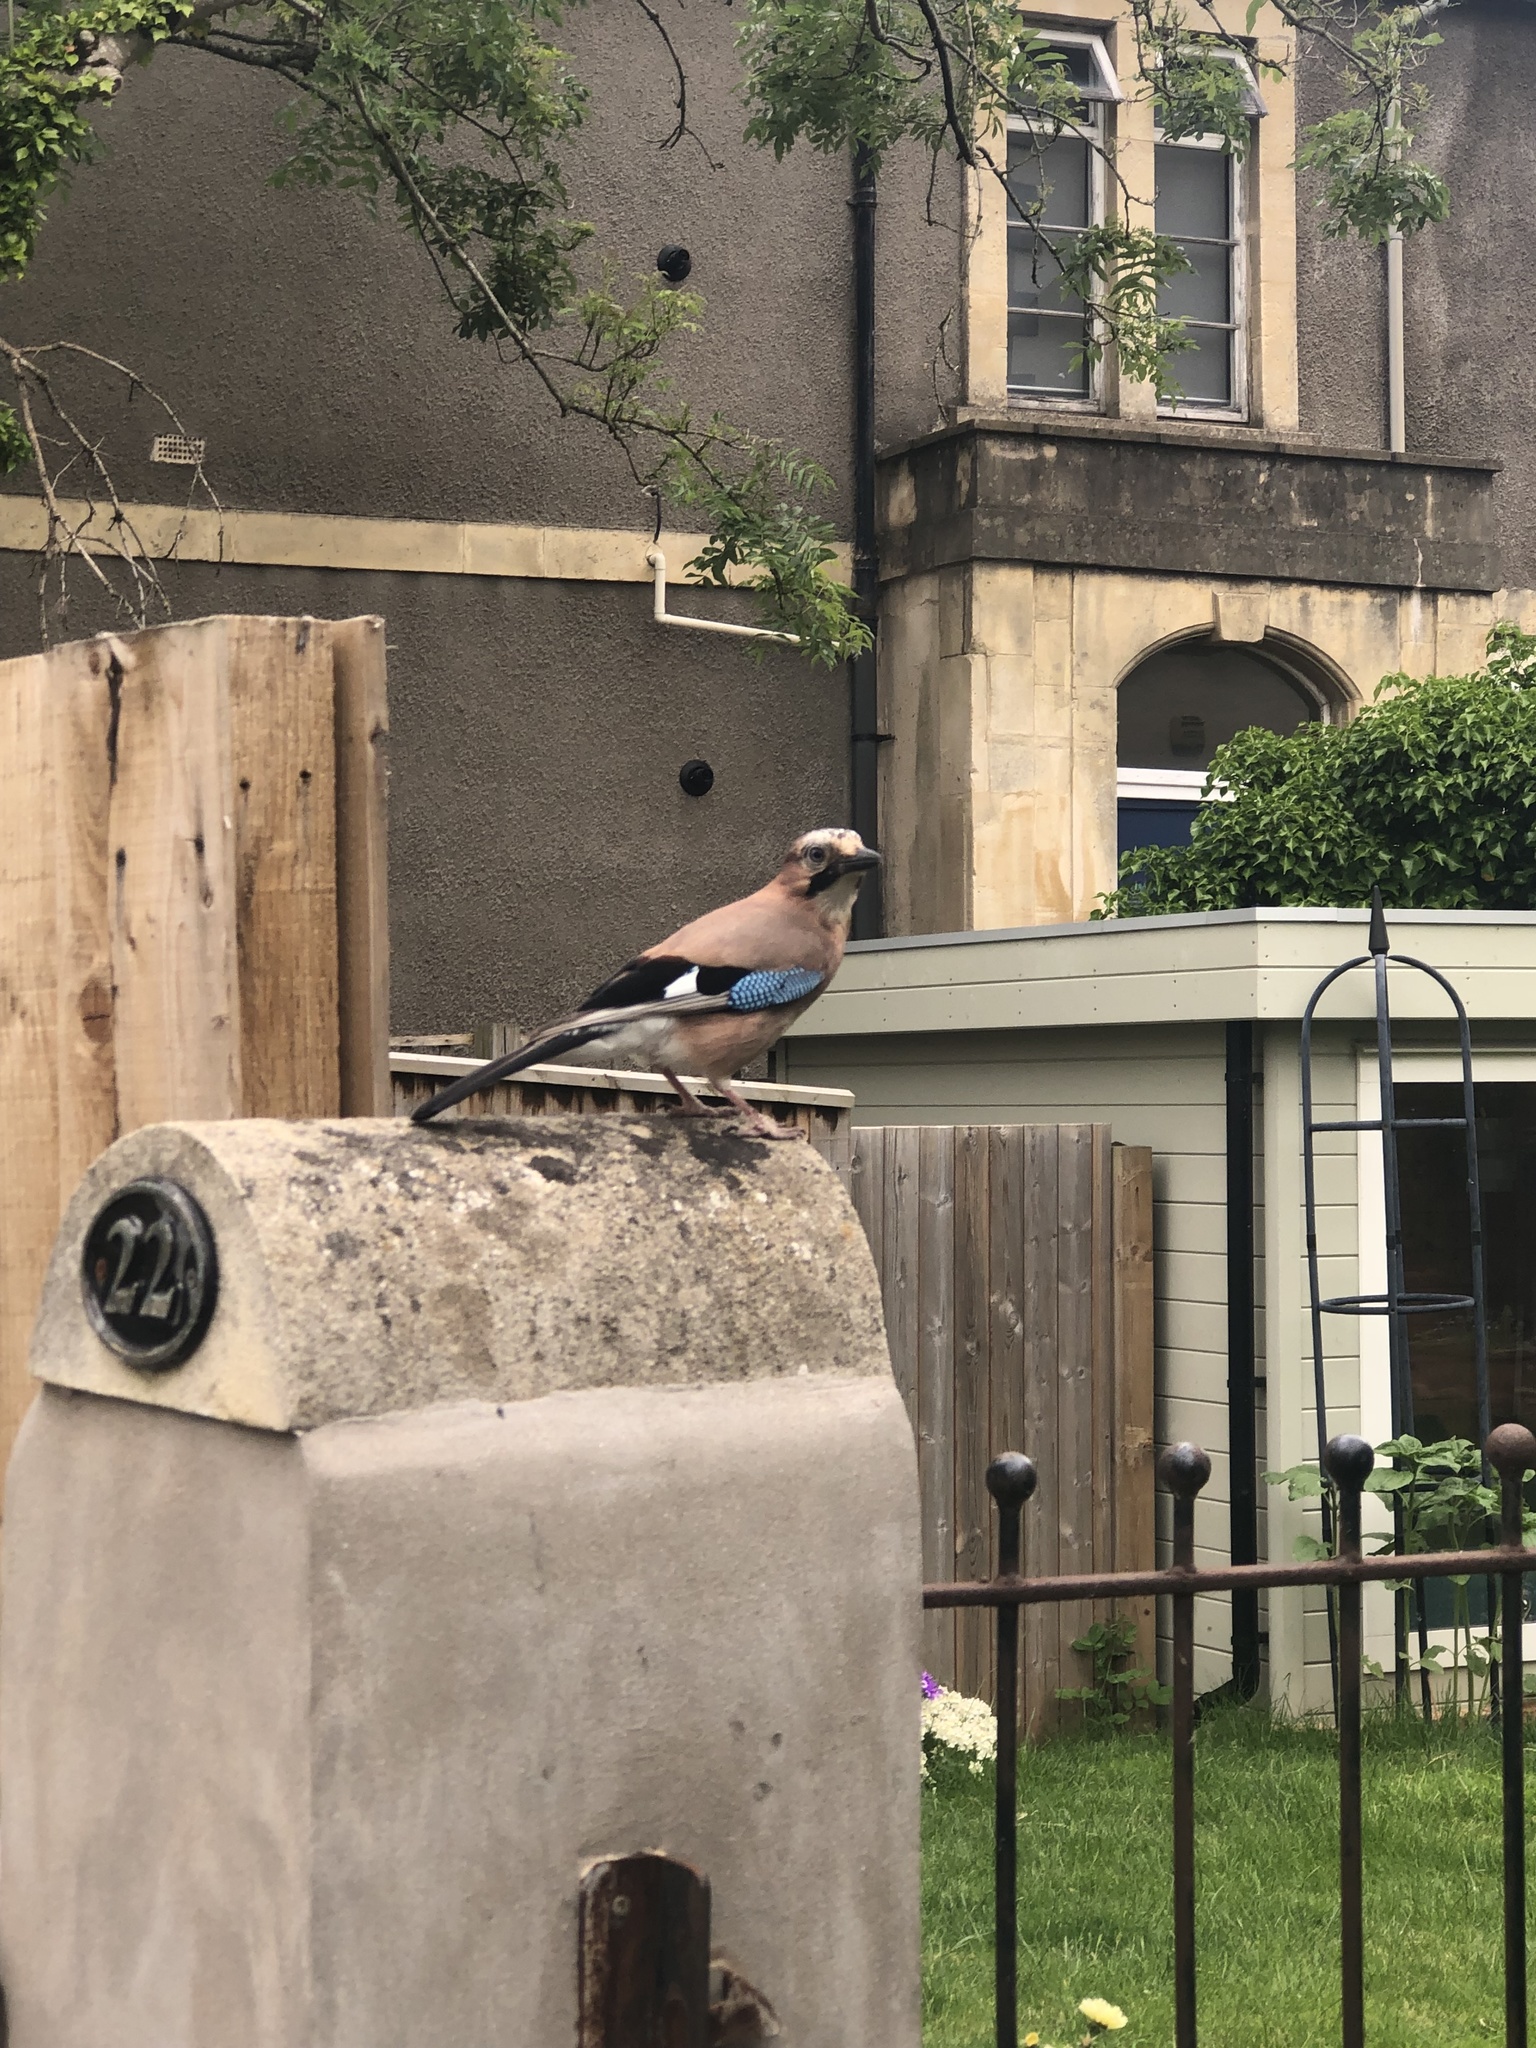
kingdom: Animalia
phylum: Chordata
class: Aves
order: Passeriformes
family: Corvidae
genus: Garrulus
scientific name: Garrulus glandarius
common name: Eurasian jay
